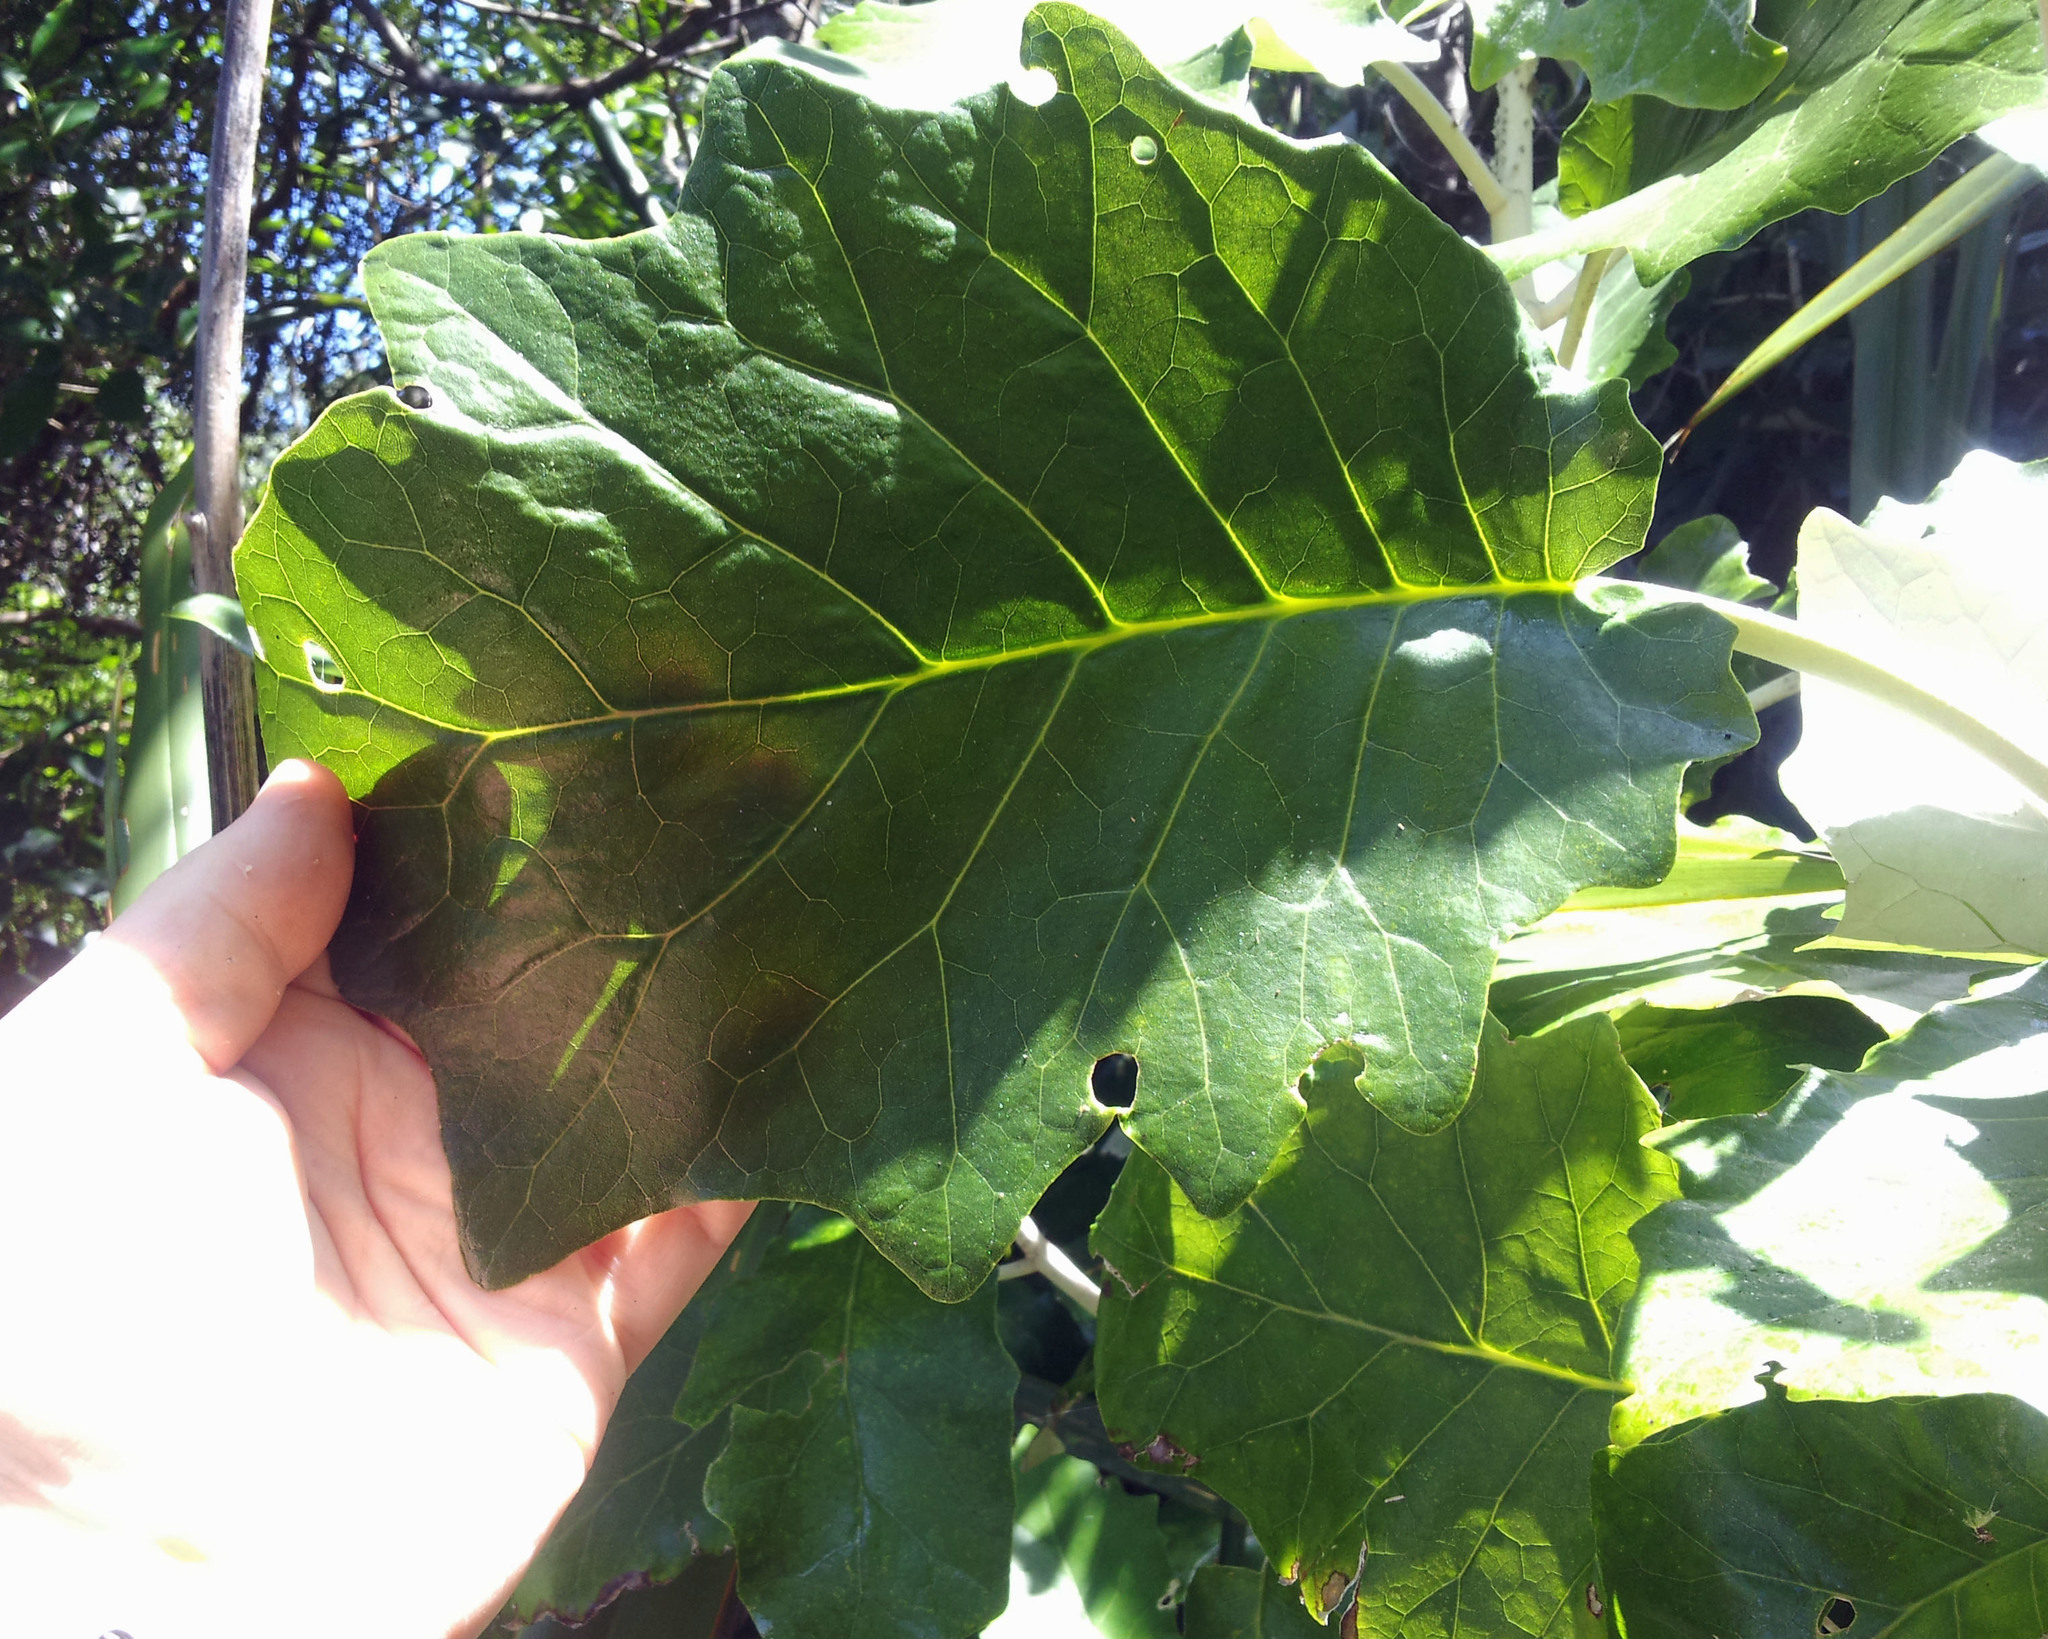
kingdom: Plantae
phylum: Tracheophyta
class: Magnoliopsida
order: Asterales
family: Asteraceae
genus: Brachyglottis
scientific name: Brachyglottis repanda
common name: Hedge ragwort
